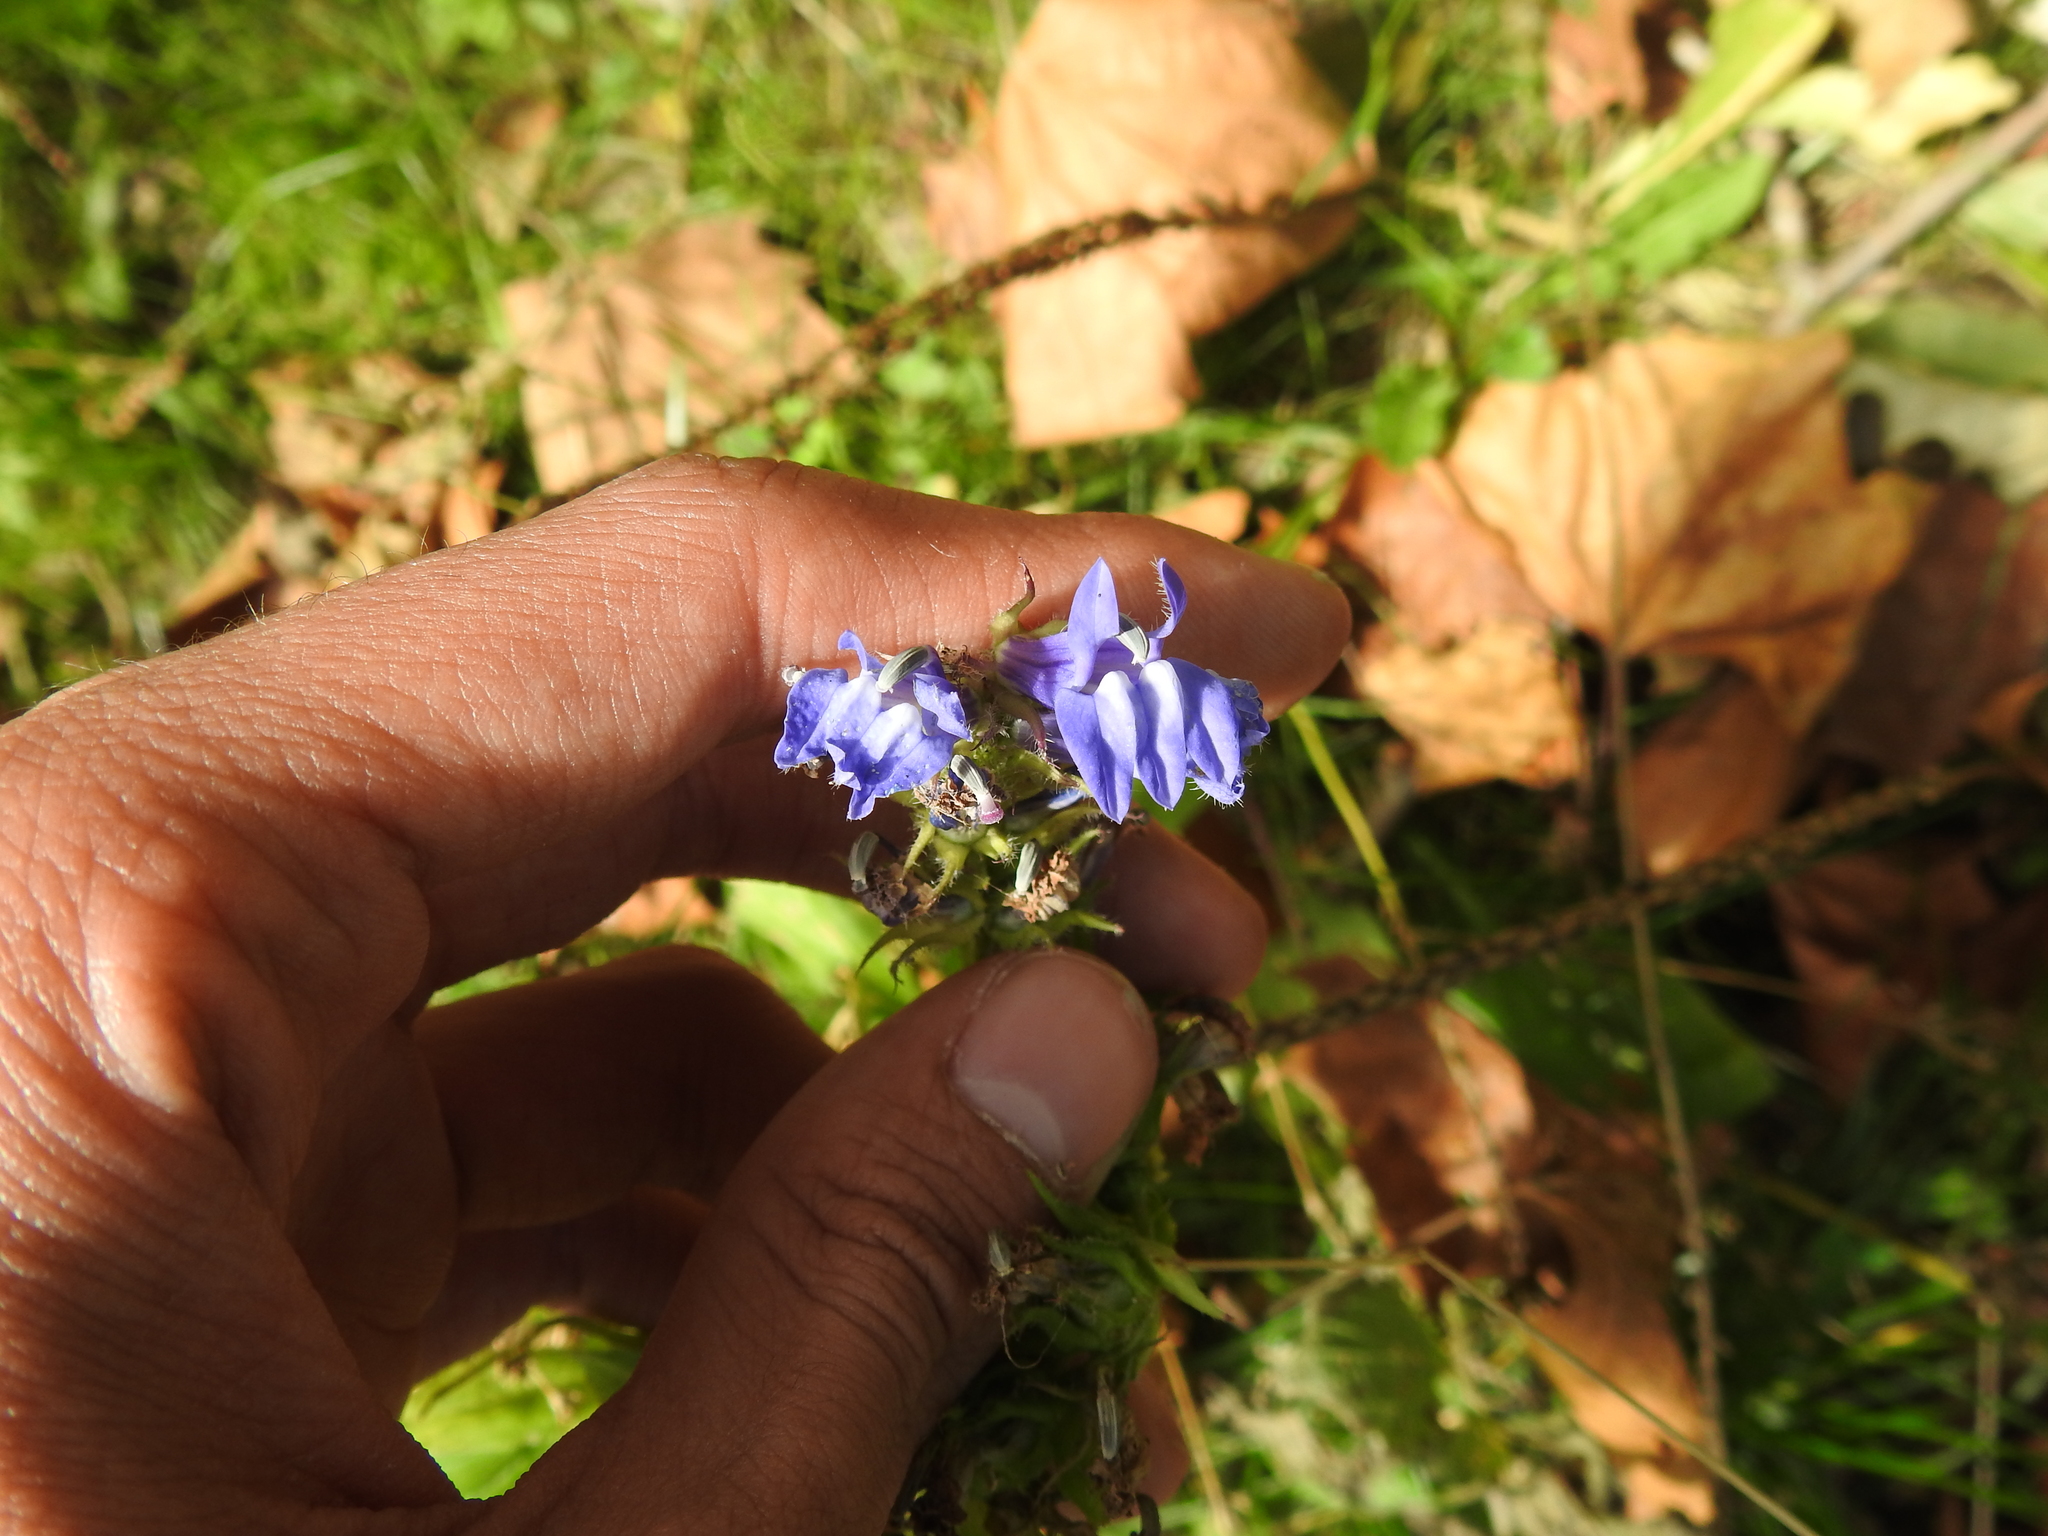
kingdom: Plantae
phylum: Tracheophyta
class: Magnoliopsida
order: Asterales
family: Campanulaceae
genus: Lobelia
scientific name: Lobelia siphilitica
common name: Great lobelia
